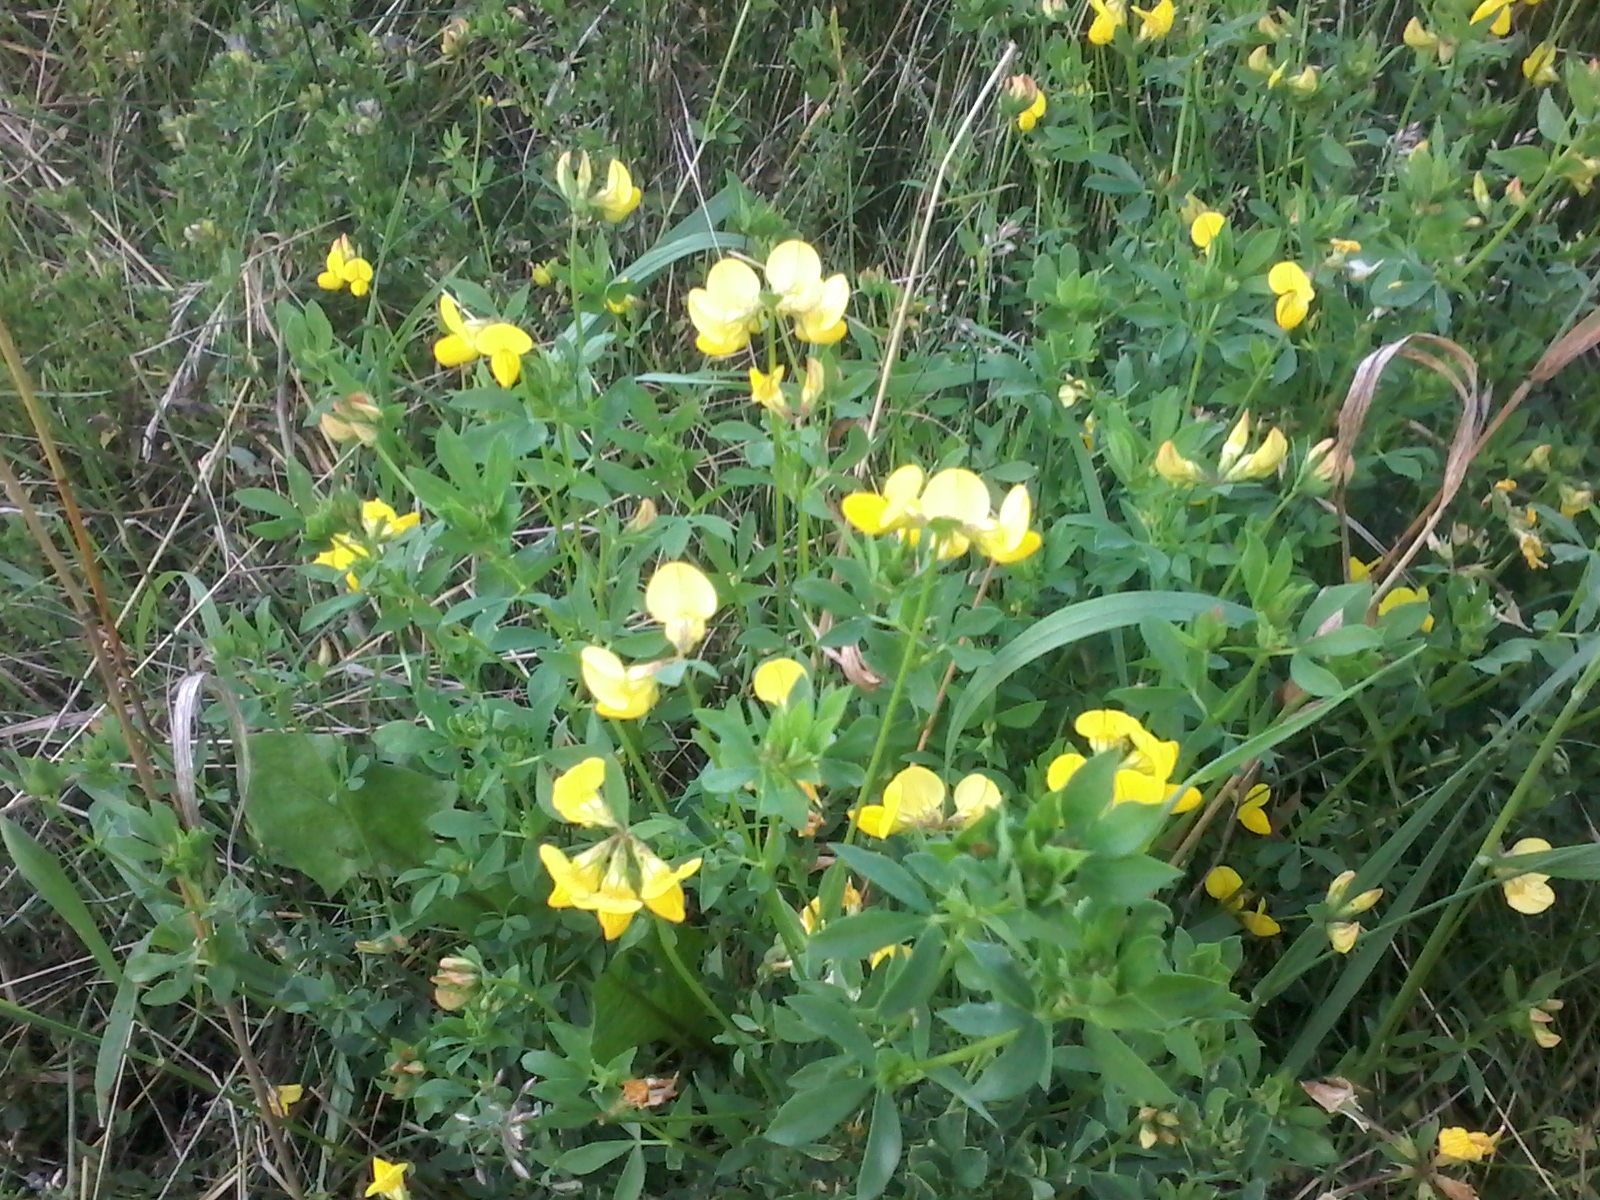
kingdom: Plantae
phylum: Tracheophyta
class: Magnoliopsida
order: Fabales
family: Fabaceae
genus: Lotus
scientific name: Lotus corniculatus
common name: Common bird's-foot-trefoil
